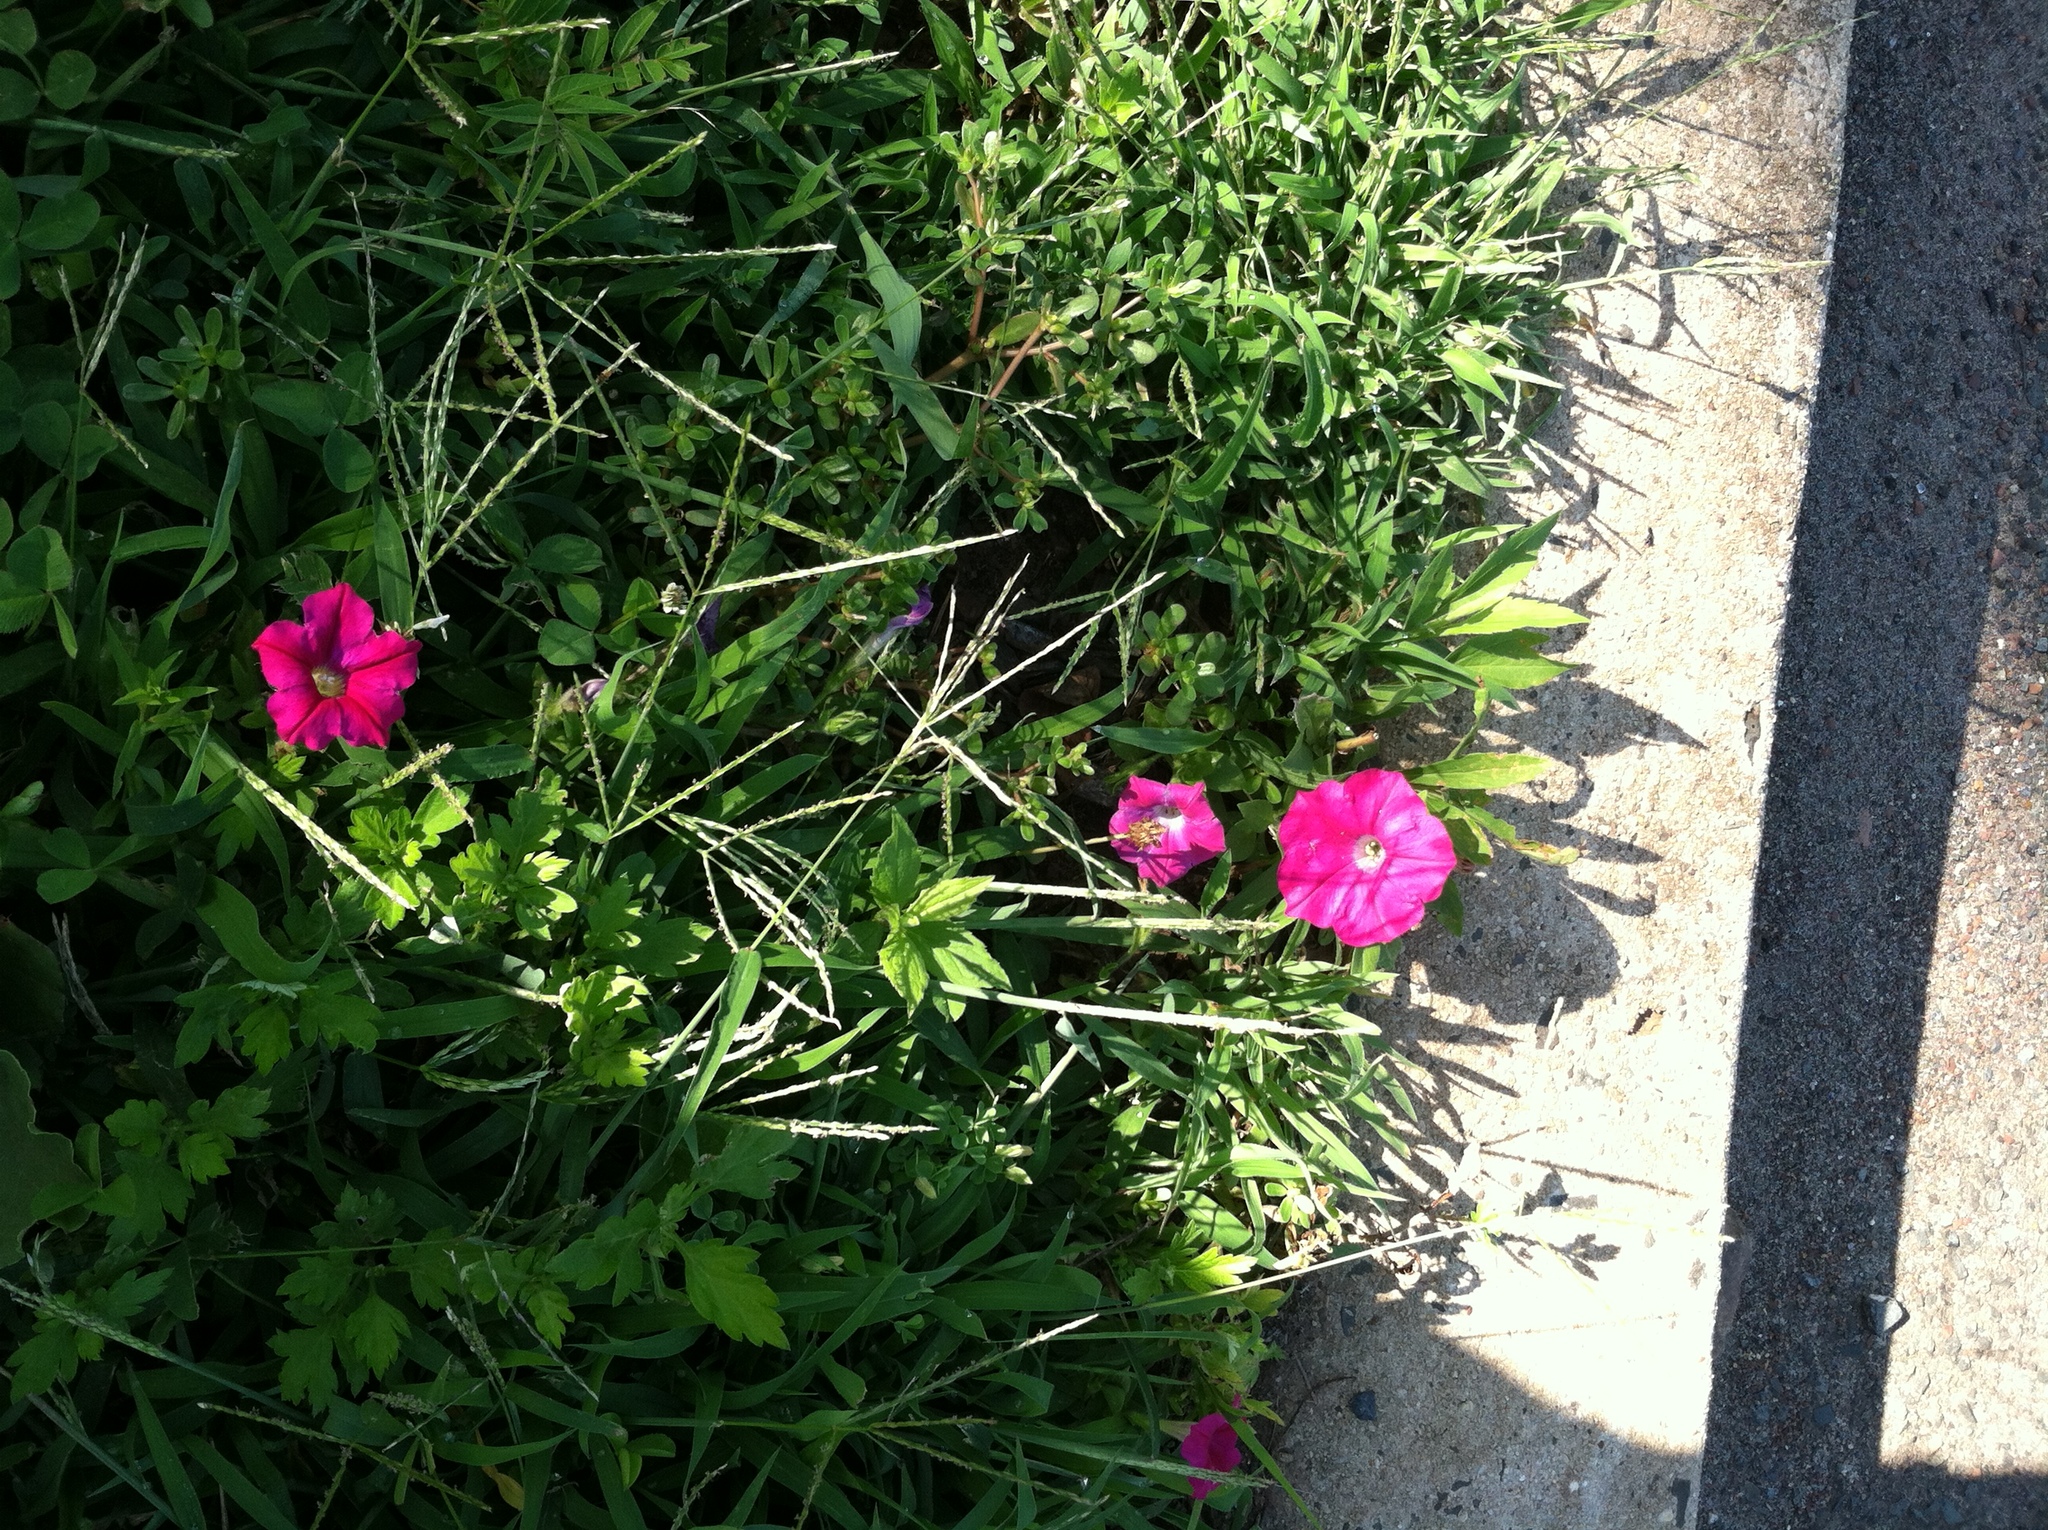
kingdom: Plantae
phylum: Tracheophyta
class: Magnoliopsida
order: Solanales
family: Solanaceae
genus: Petunia
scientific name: Petunia atkinsiana
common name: Petunia
